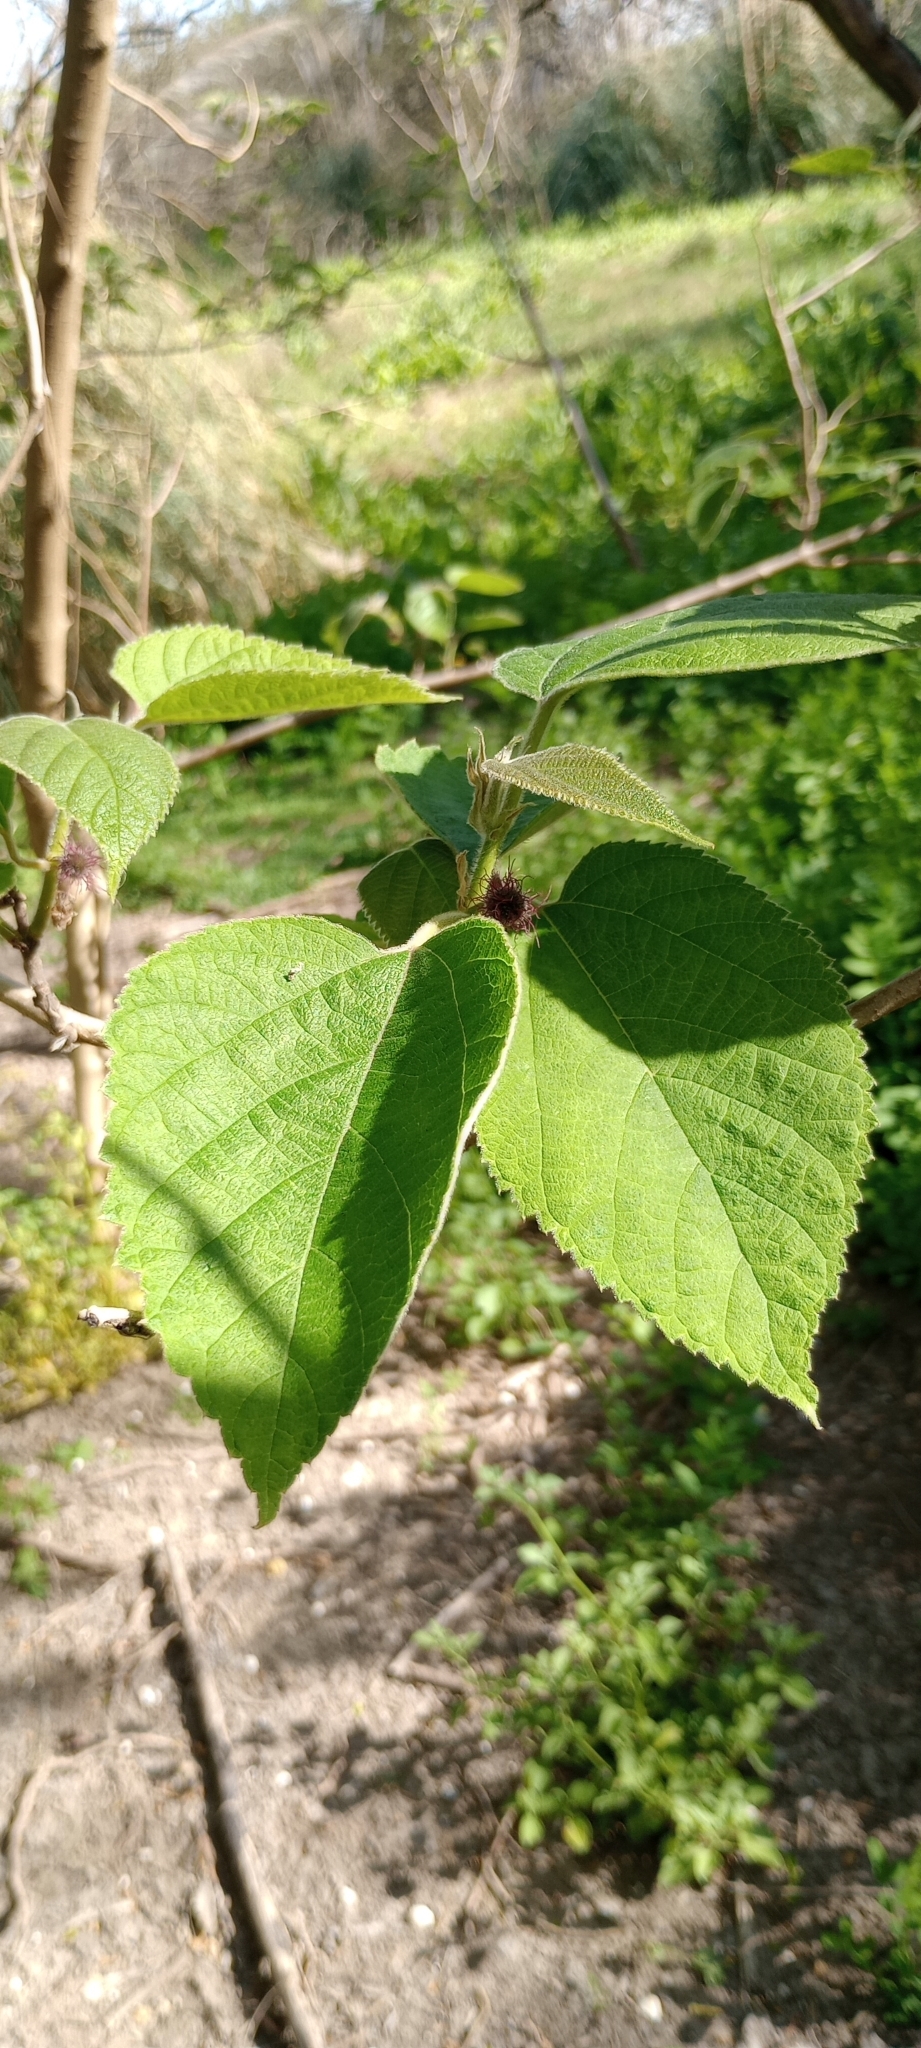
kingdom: Plantae
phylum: Tracheophyta
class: Magnoliopsida
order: Rosales
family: Moraceae
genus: Broussonetia
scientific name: Broussonetia papyrifera
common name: Paper mulberry
